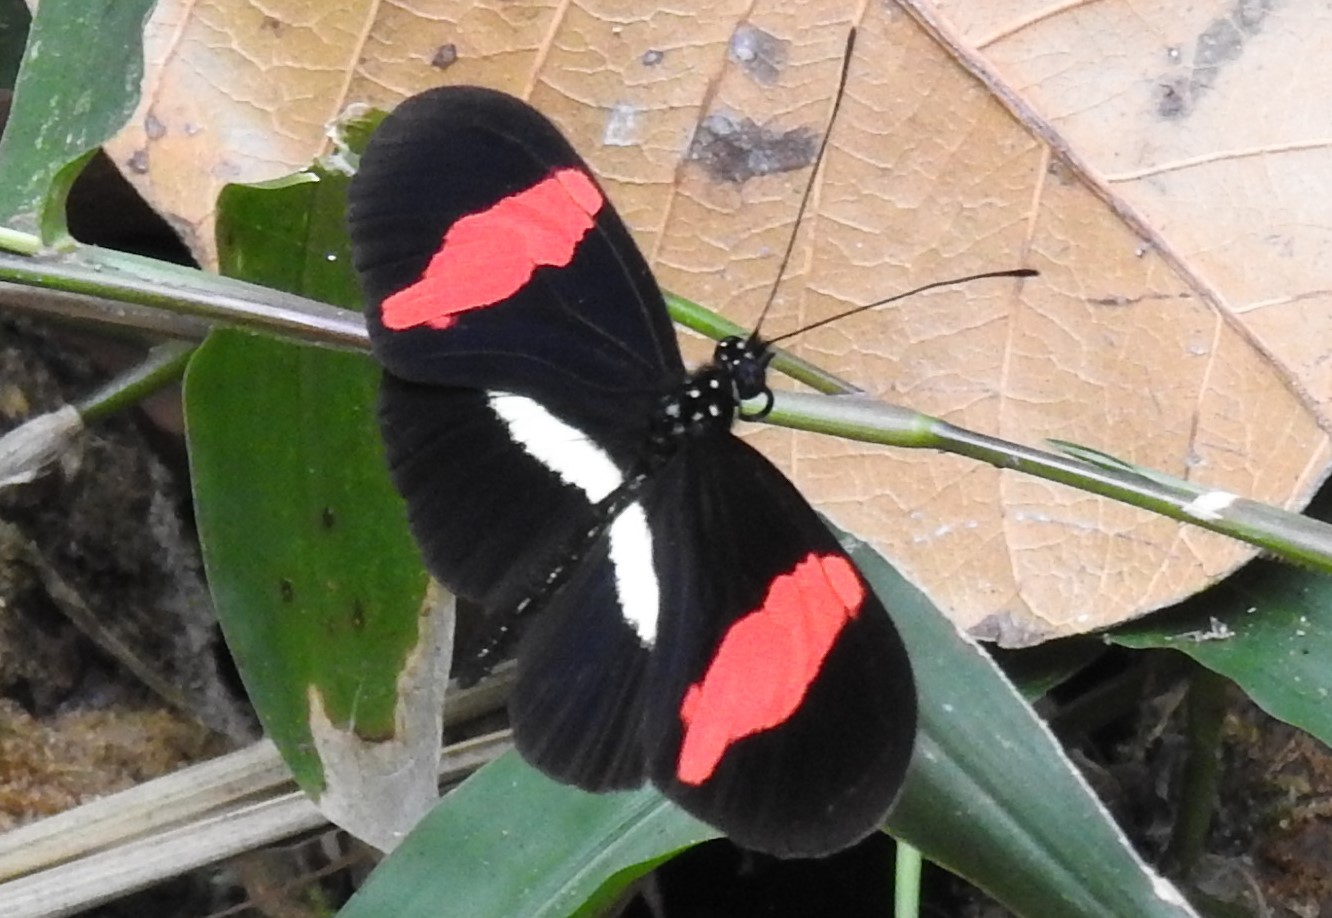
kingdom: Animalia
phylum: Arthropoda
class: Insecta
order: Lepidoptera
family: Nymphalidae
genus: Tirumala
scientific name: Tirumala petiverana
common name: Blue monarch
